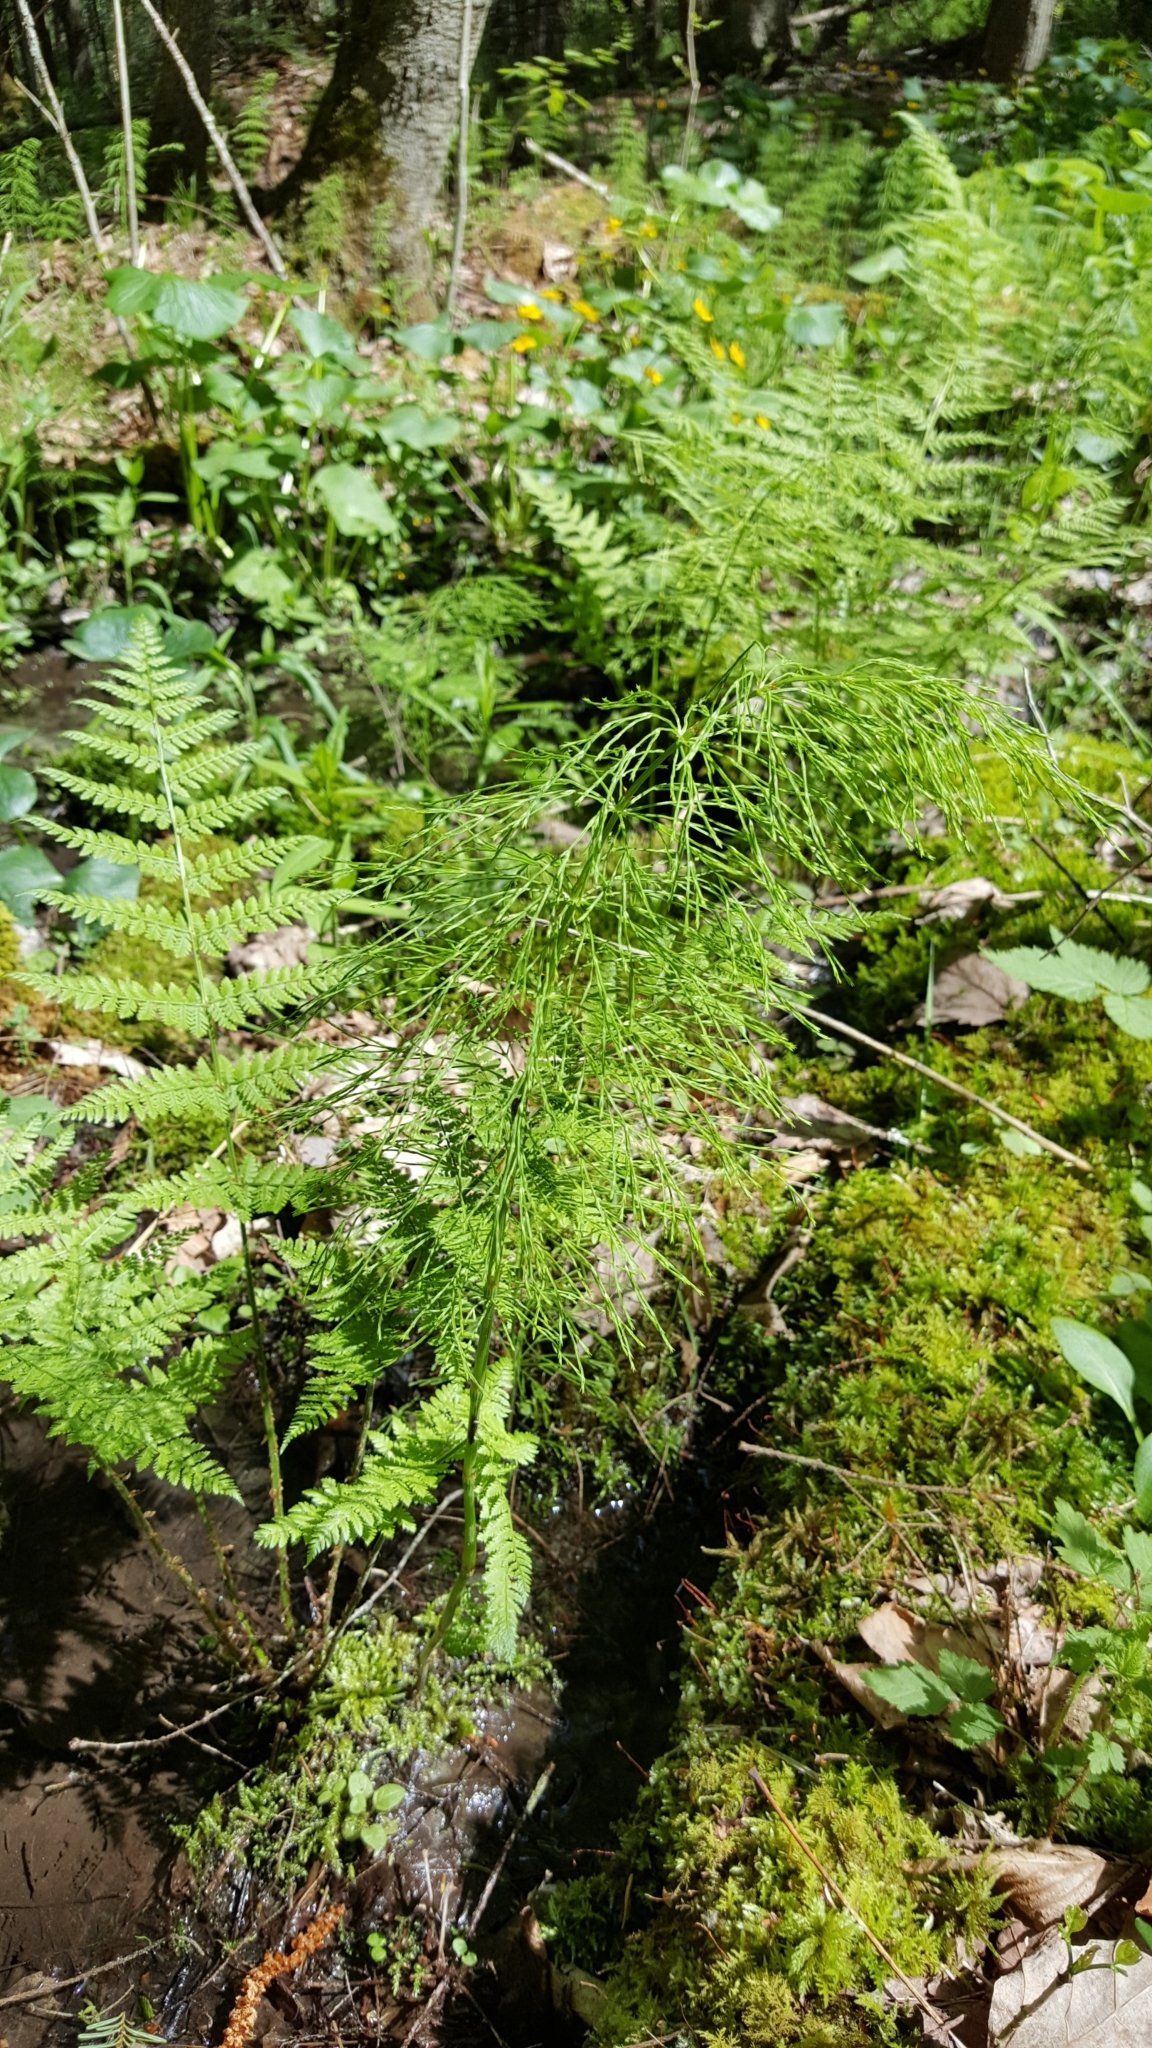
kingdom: Plantae
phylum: Tracheophyta
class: Polypodiopsida
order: Equisetales
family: Equisetaceae
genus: Equisetum
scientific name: Equisetum sylvaticum
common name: Wood horsetail
